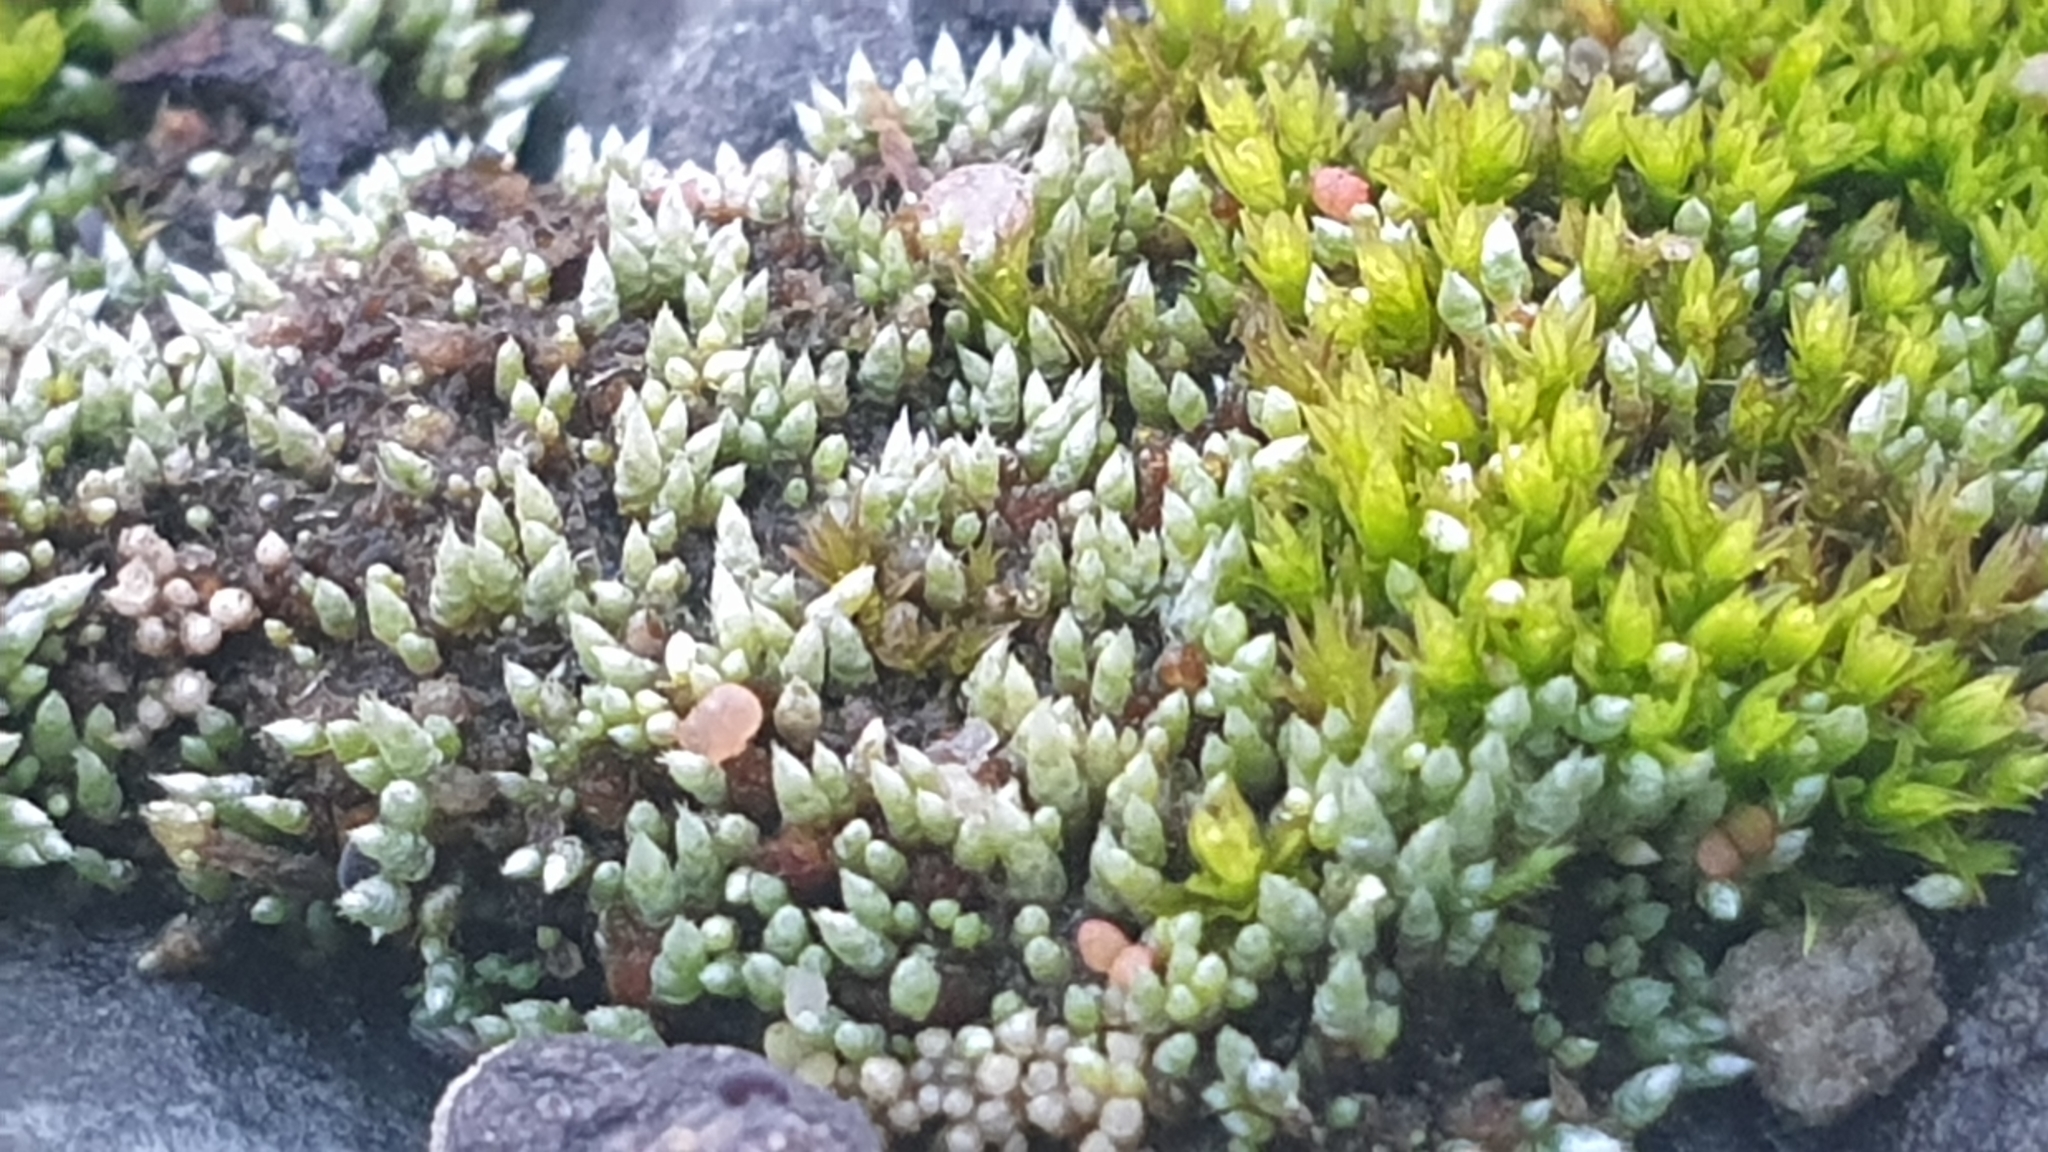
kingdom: Plantae
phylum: Bryophyta
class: Bryopsida
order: Bryales
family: Bryaceae
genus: Bryum
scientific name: Bryum argenteum
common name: Silver-moss
